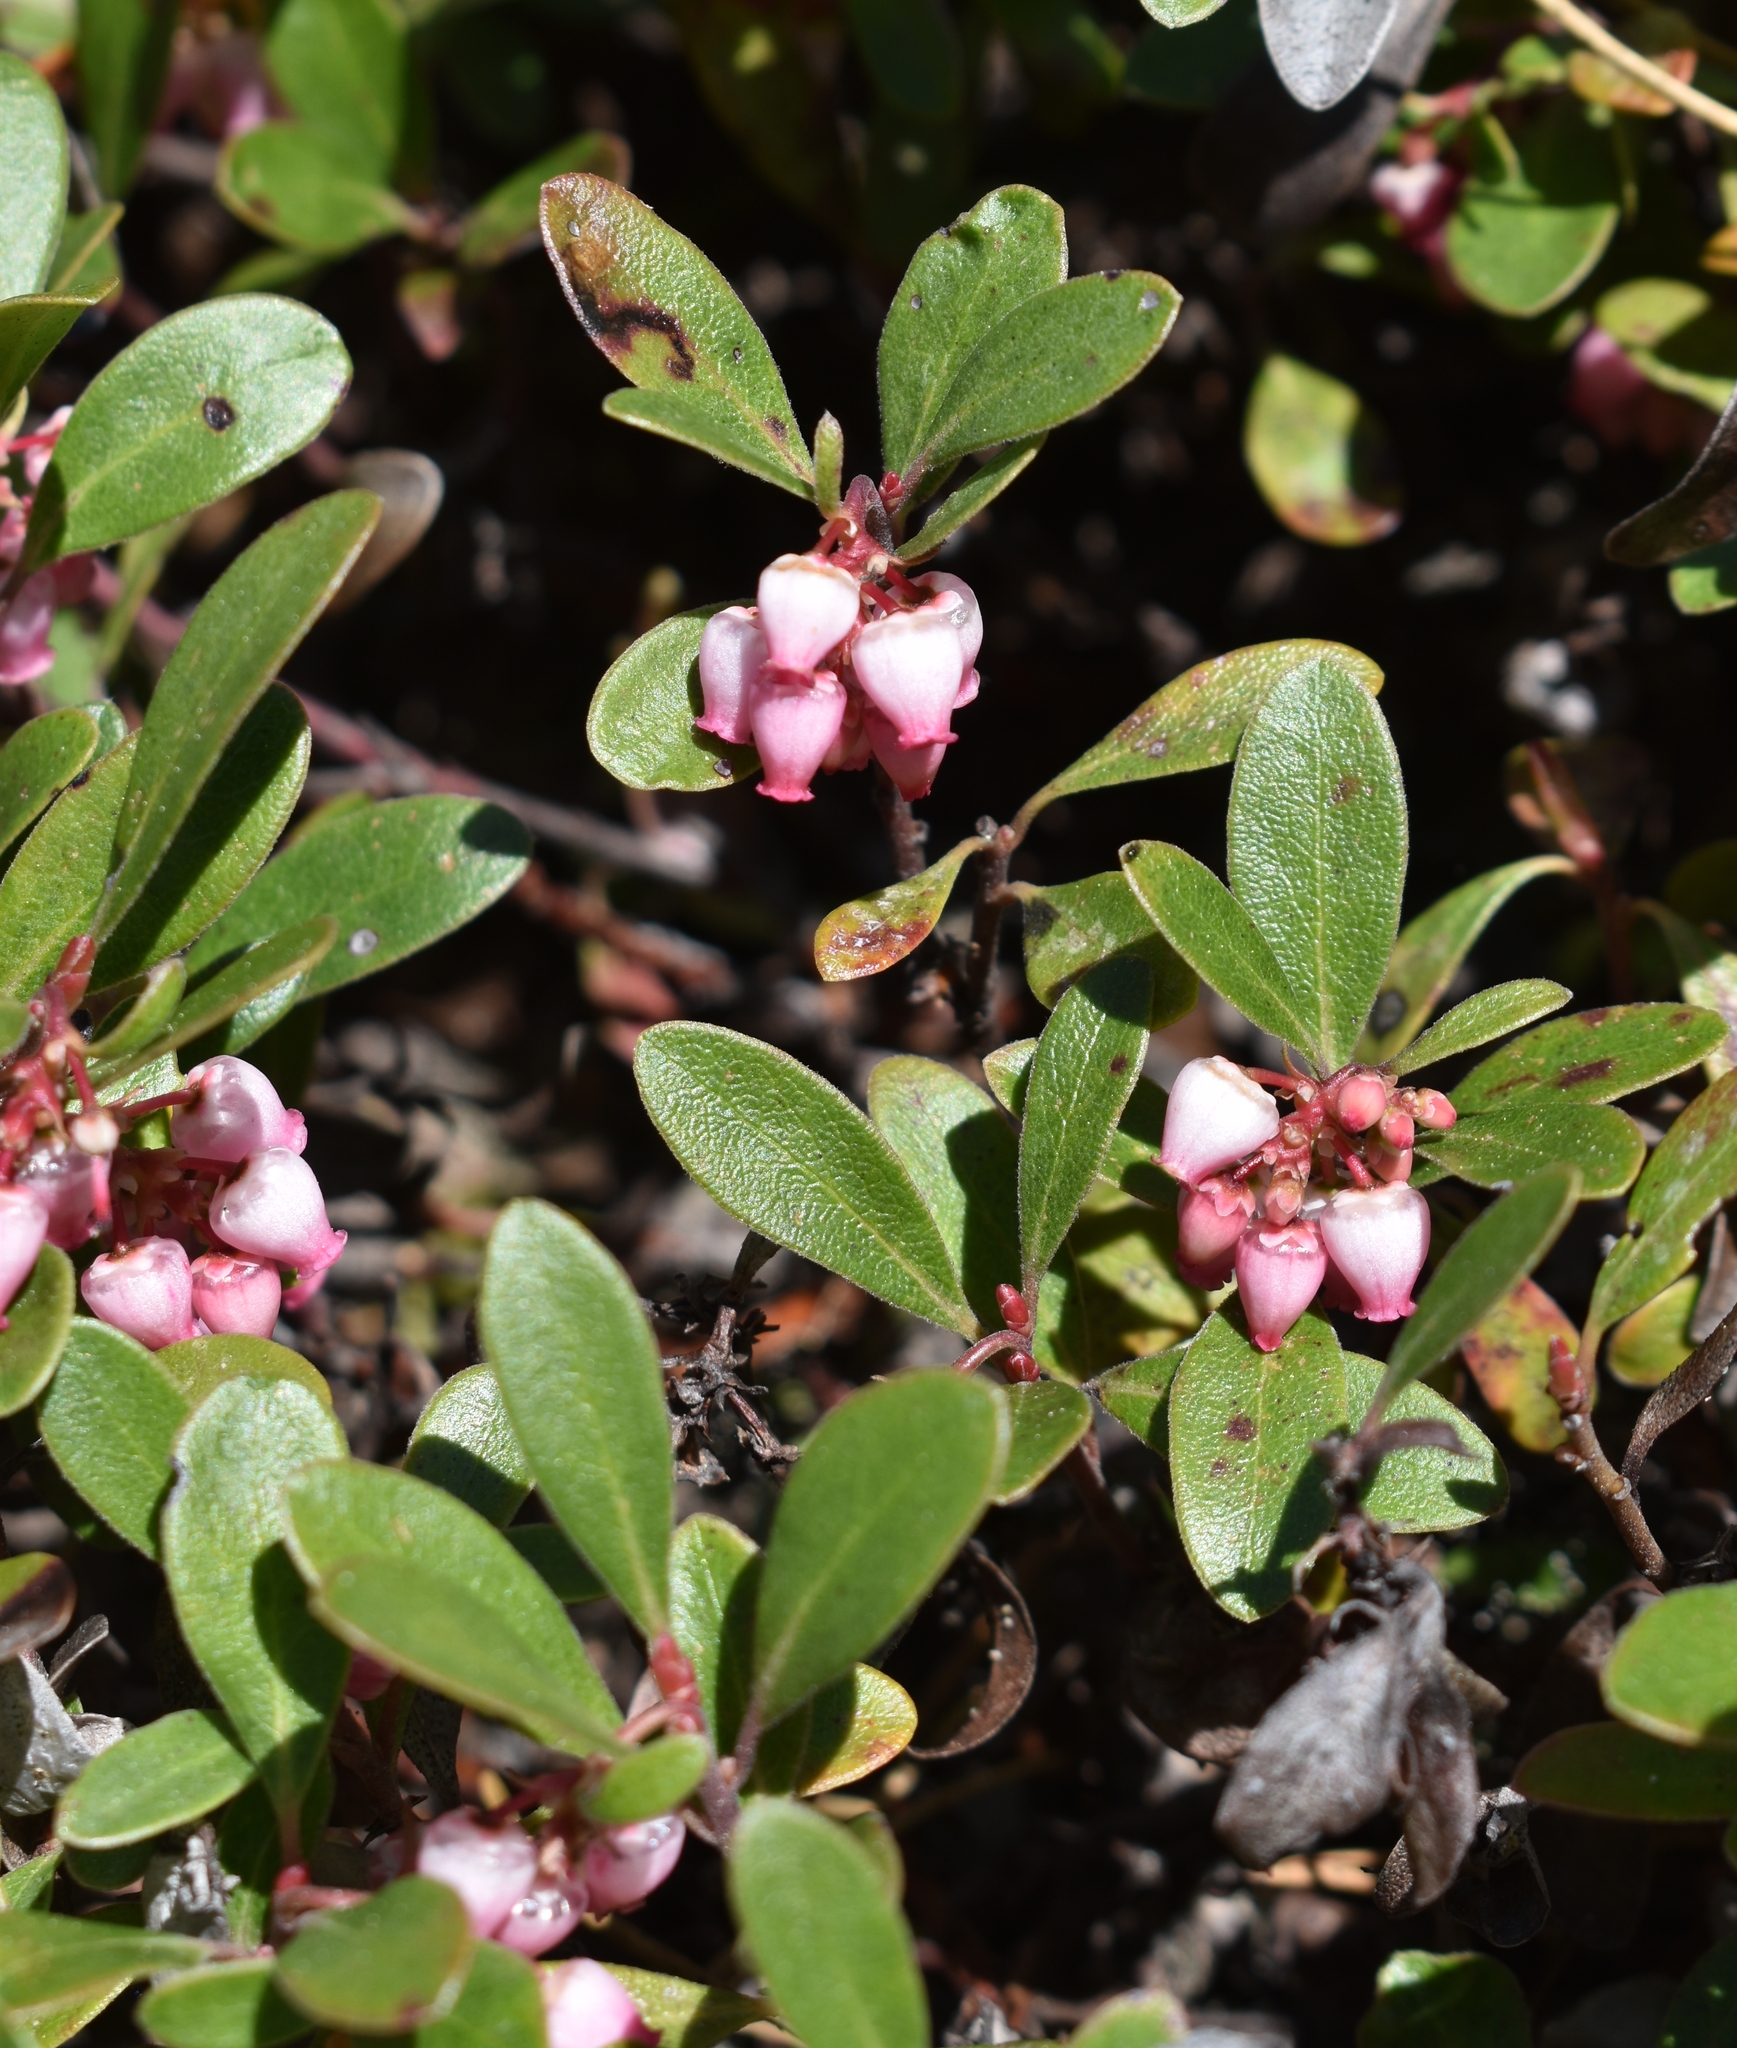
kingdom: Plantae
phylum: Tracheophyta
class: Magnoliopsida
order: Ericales
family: Ericaceae
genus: Arctostaphylos
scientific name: Arctostaphylos uva-ursi
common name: Bearberry
